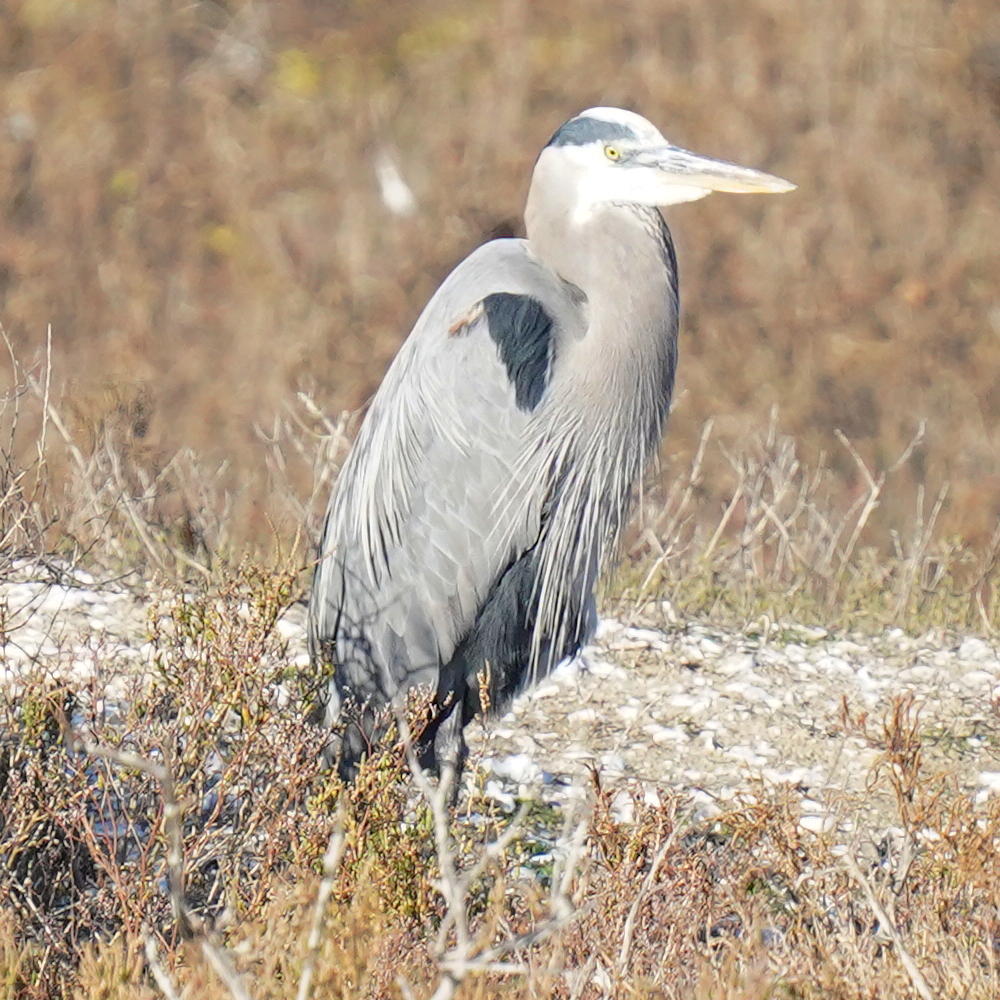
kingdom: Animalia
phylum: Chordata
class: Aves
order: Pelecaniformes
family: Ardeidae
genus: Ardea
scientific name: Ardea herodias
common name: Great blue heron
